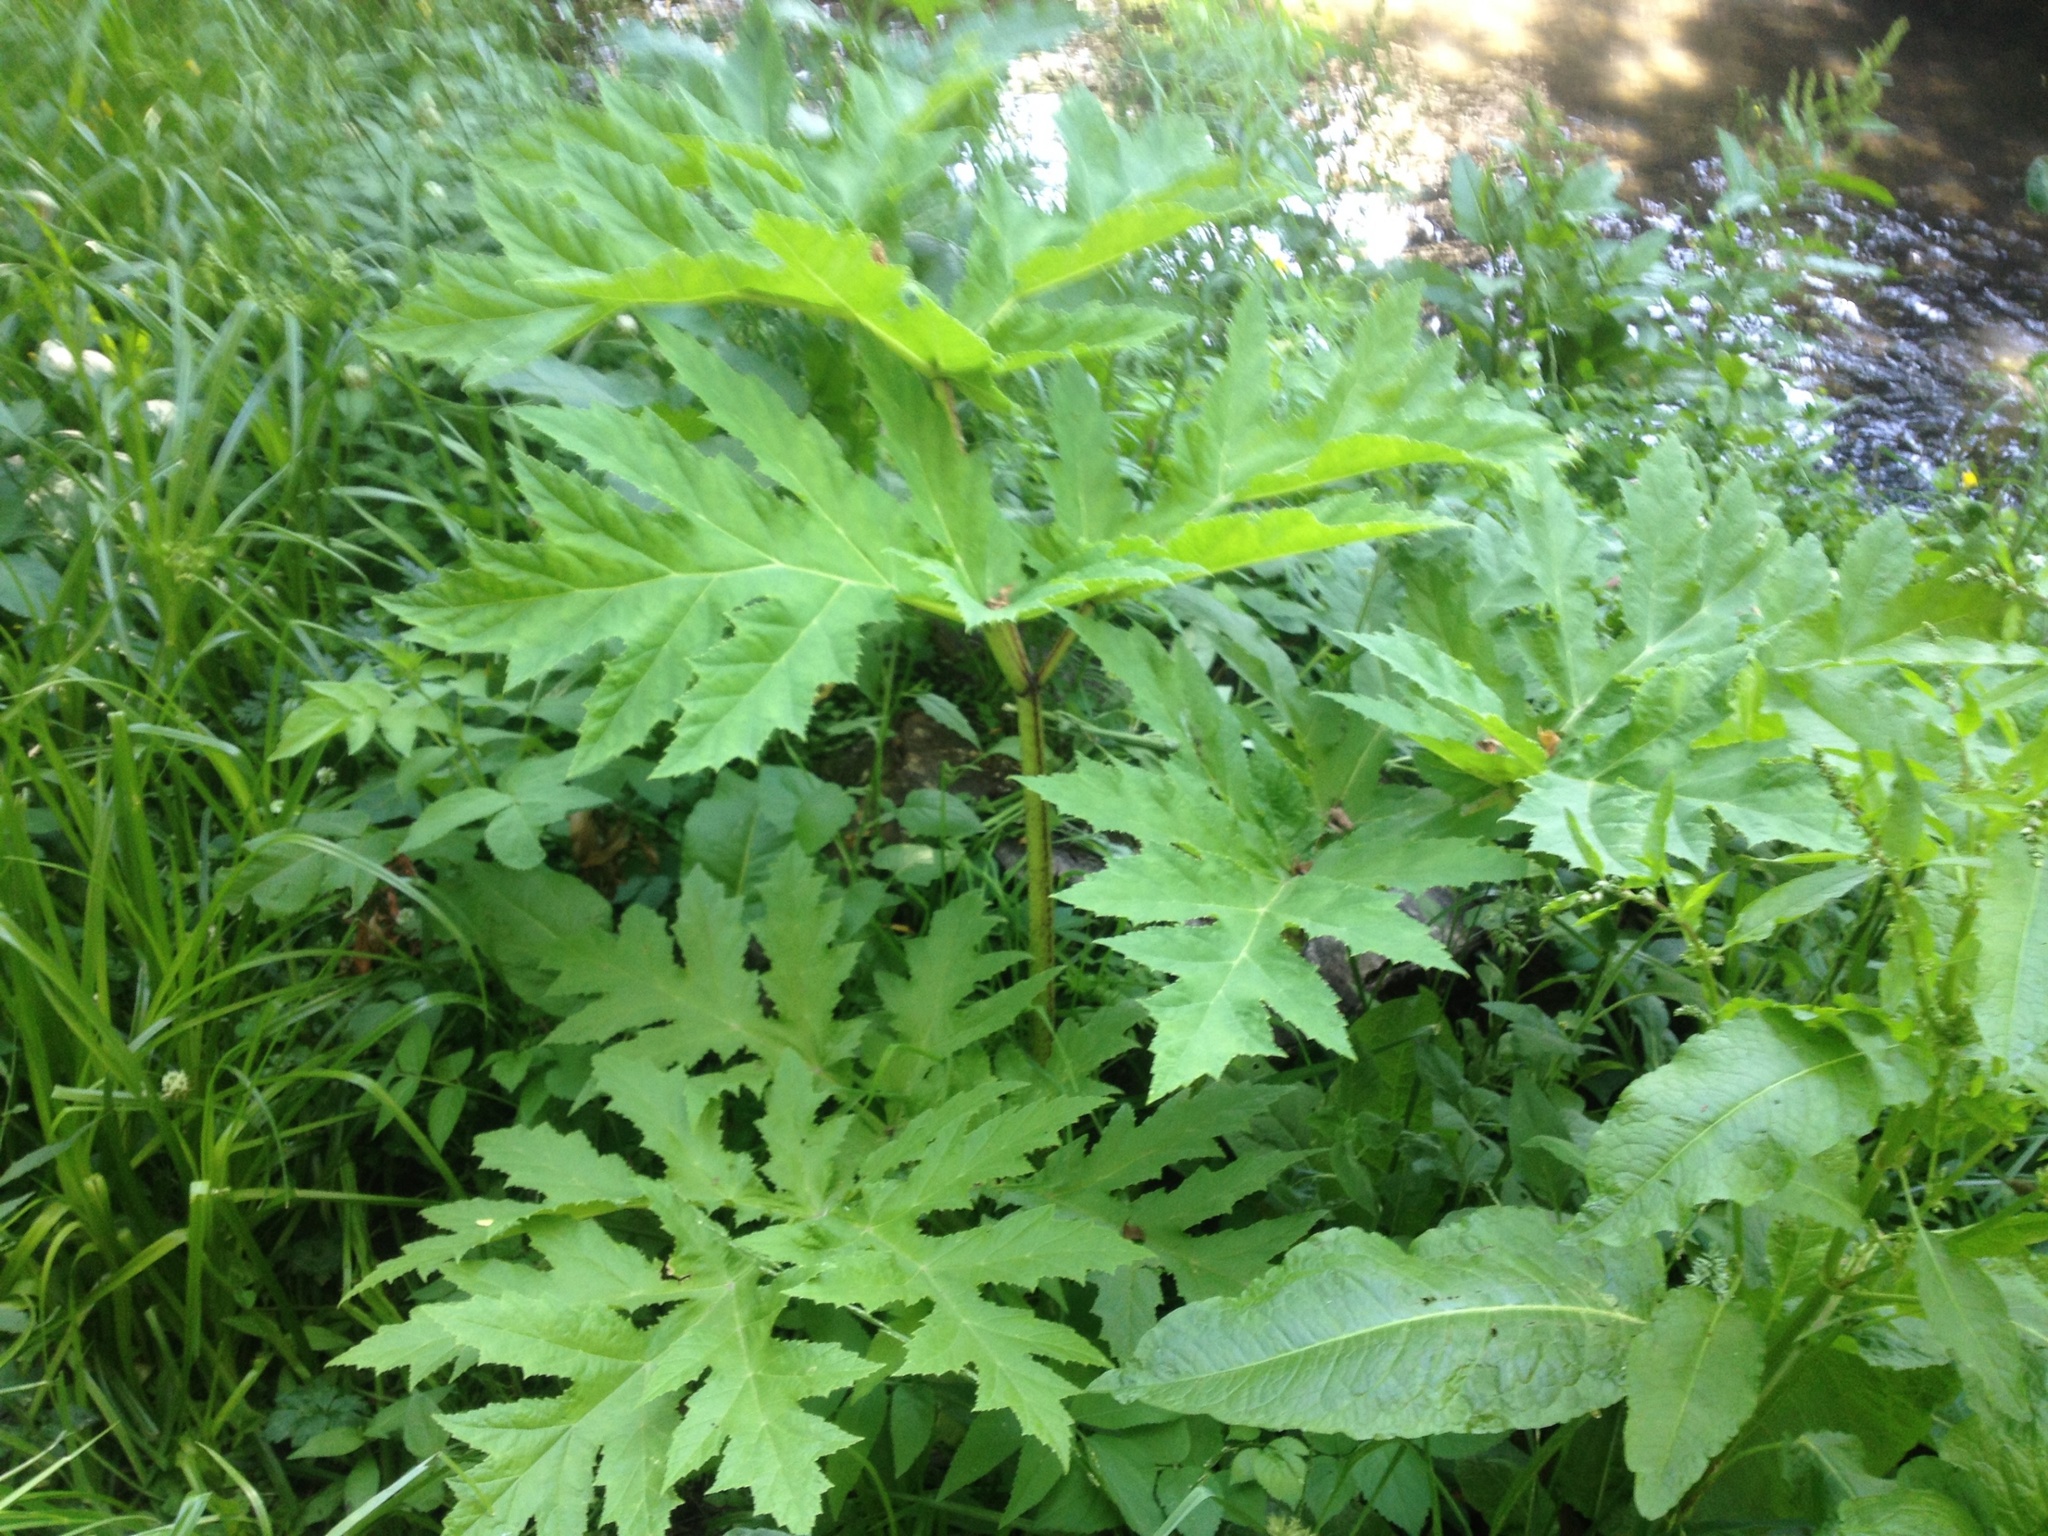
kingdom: Plantae
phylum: Tracheophyta
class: Magnoliopsida
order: Apiales
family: Apiaceae
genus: Heracleum
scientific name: Heracleum mantegazzianum
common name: Giant hogweed
